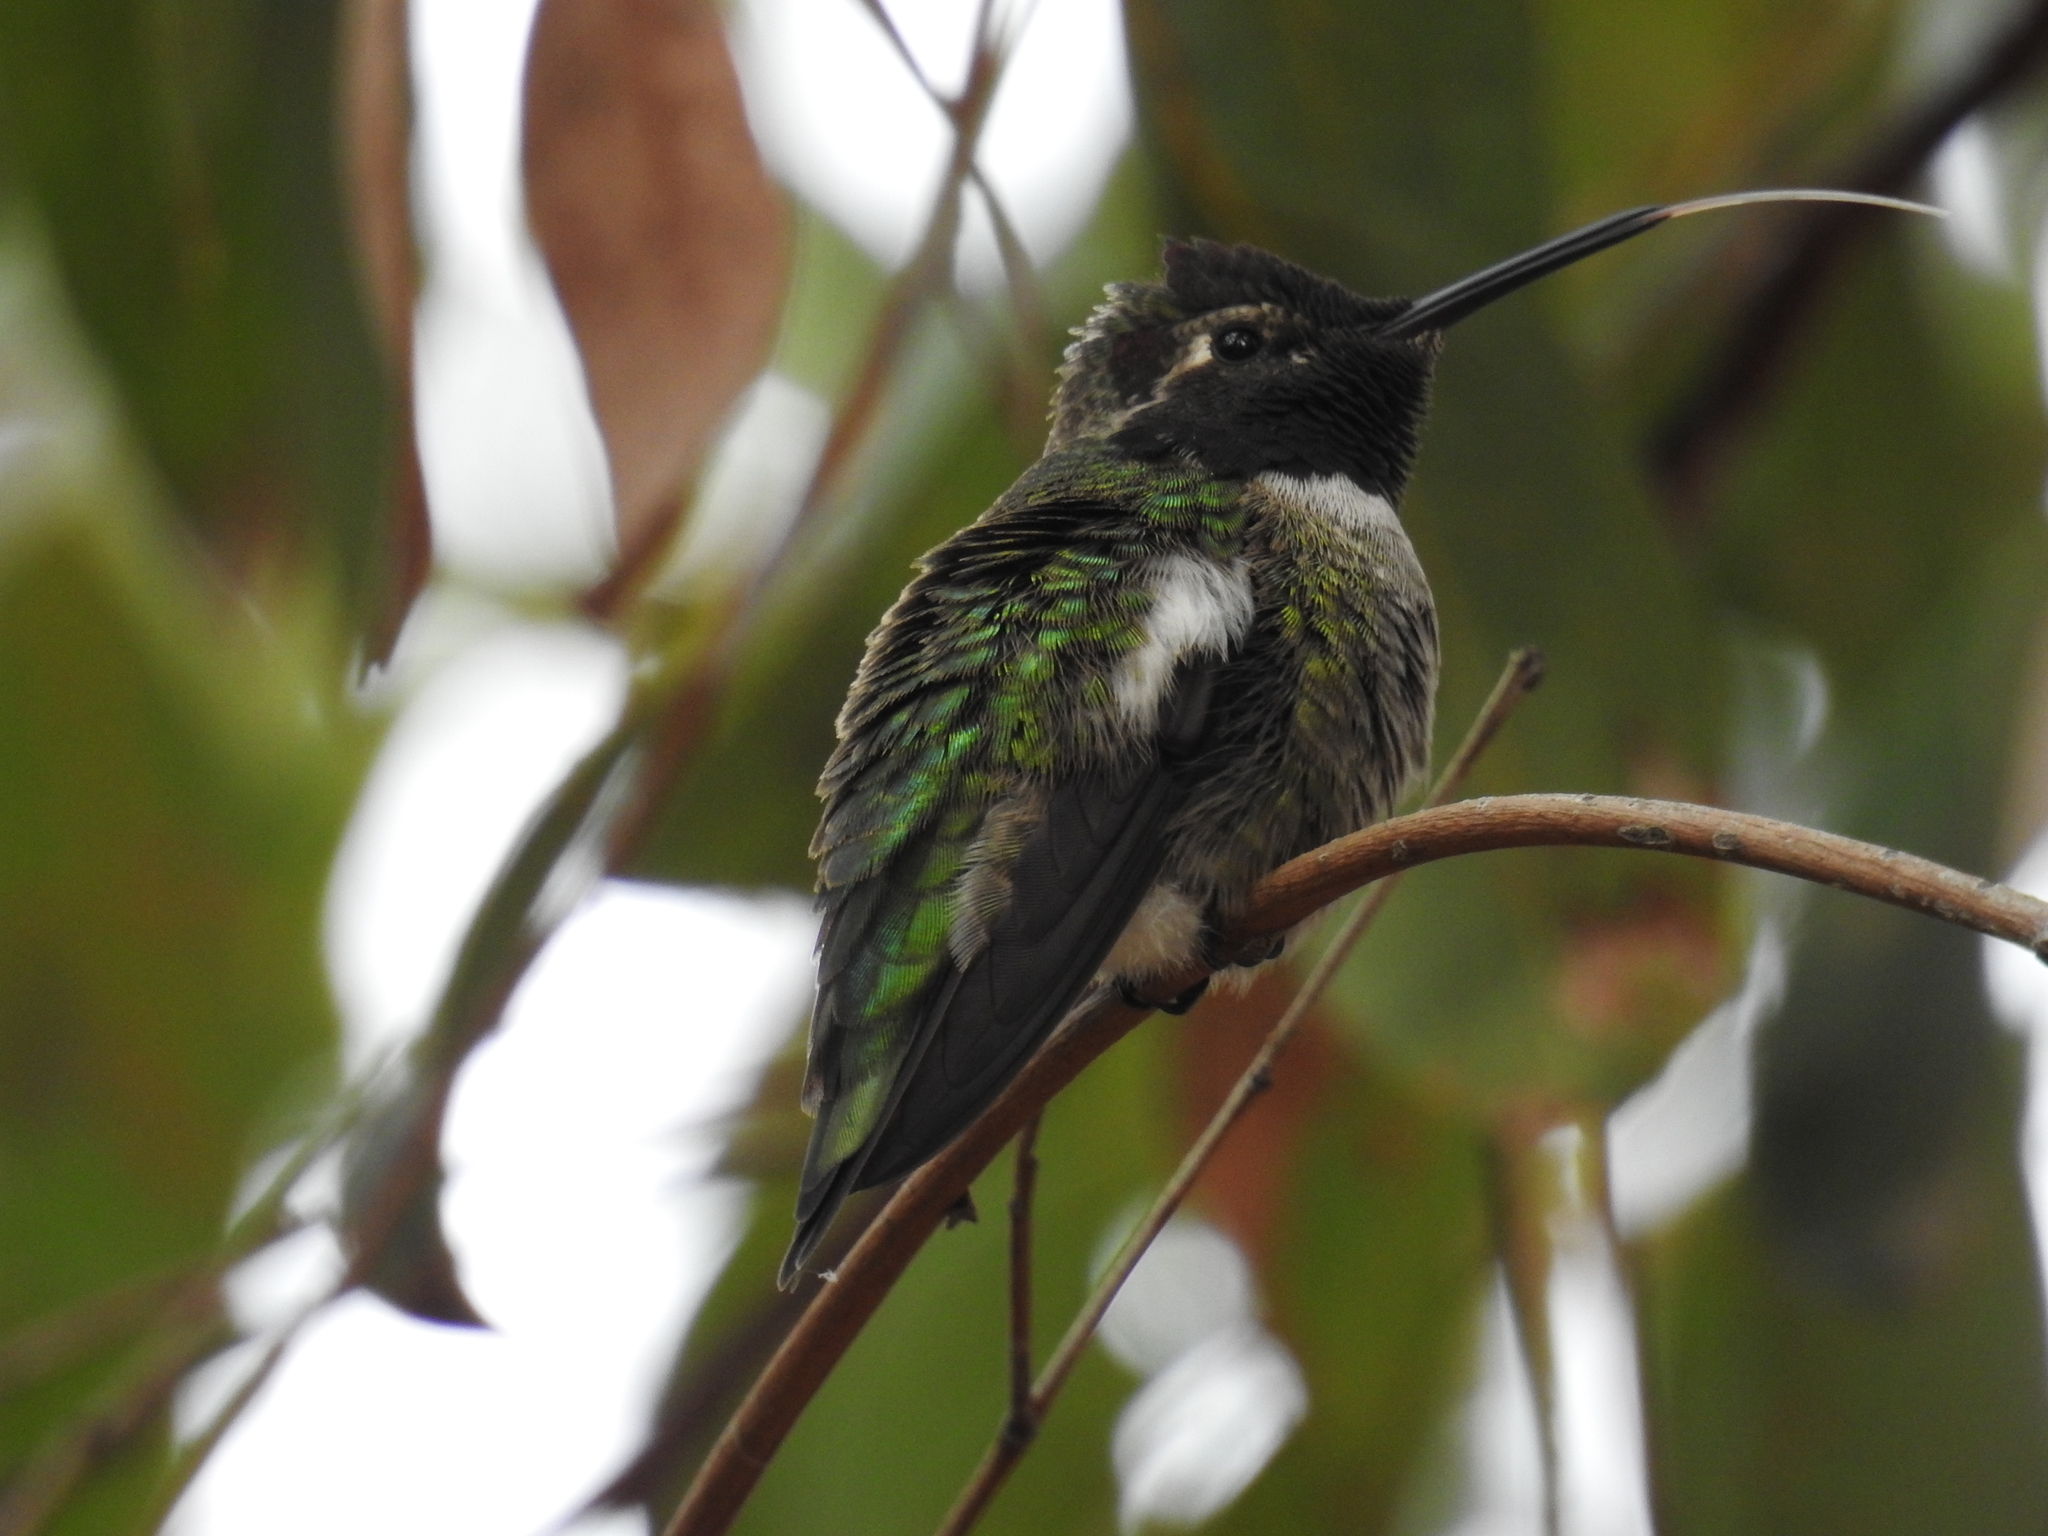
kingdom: Animalia
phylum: Chordata
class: Aves
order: Apodiformes
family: Trochilidae
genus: Calypte
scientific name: Calypte anna
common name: Anna's hummingbird
